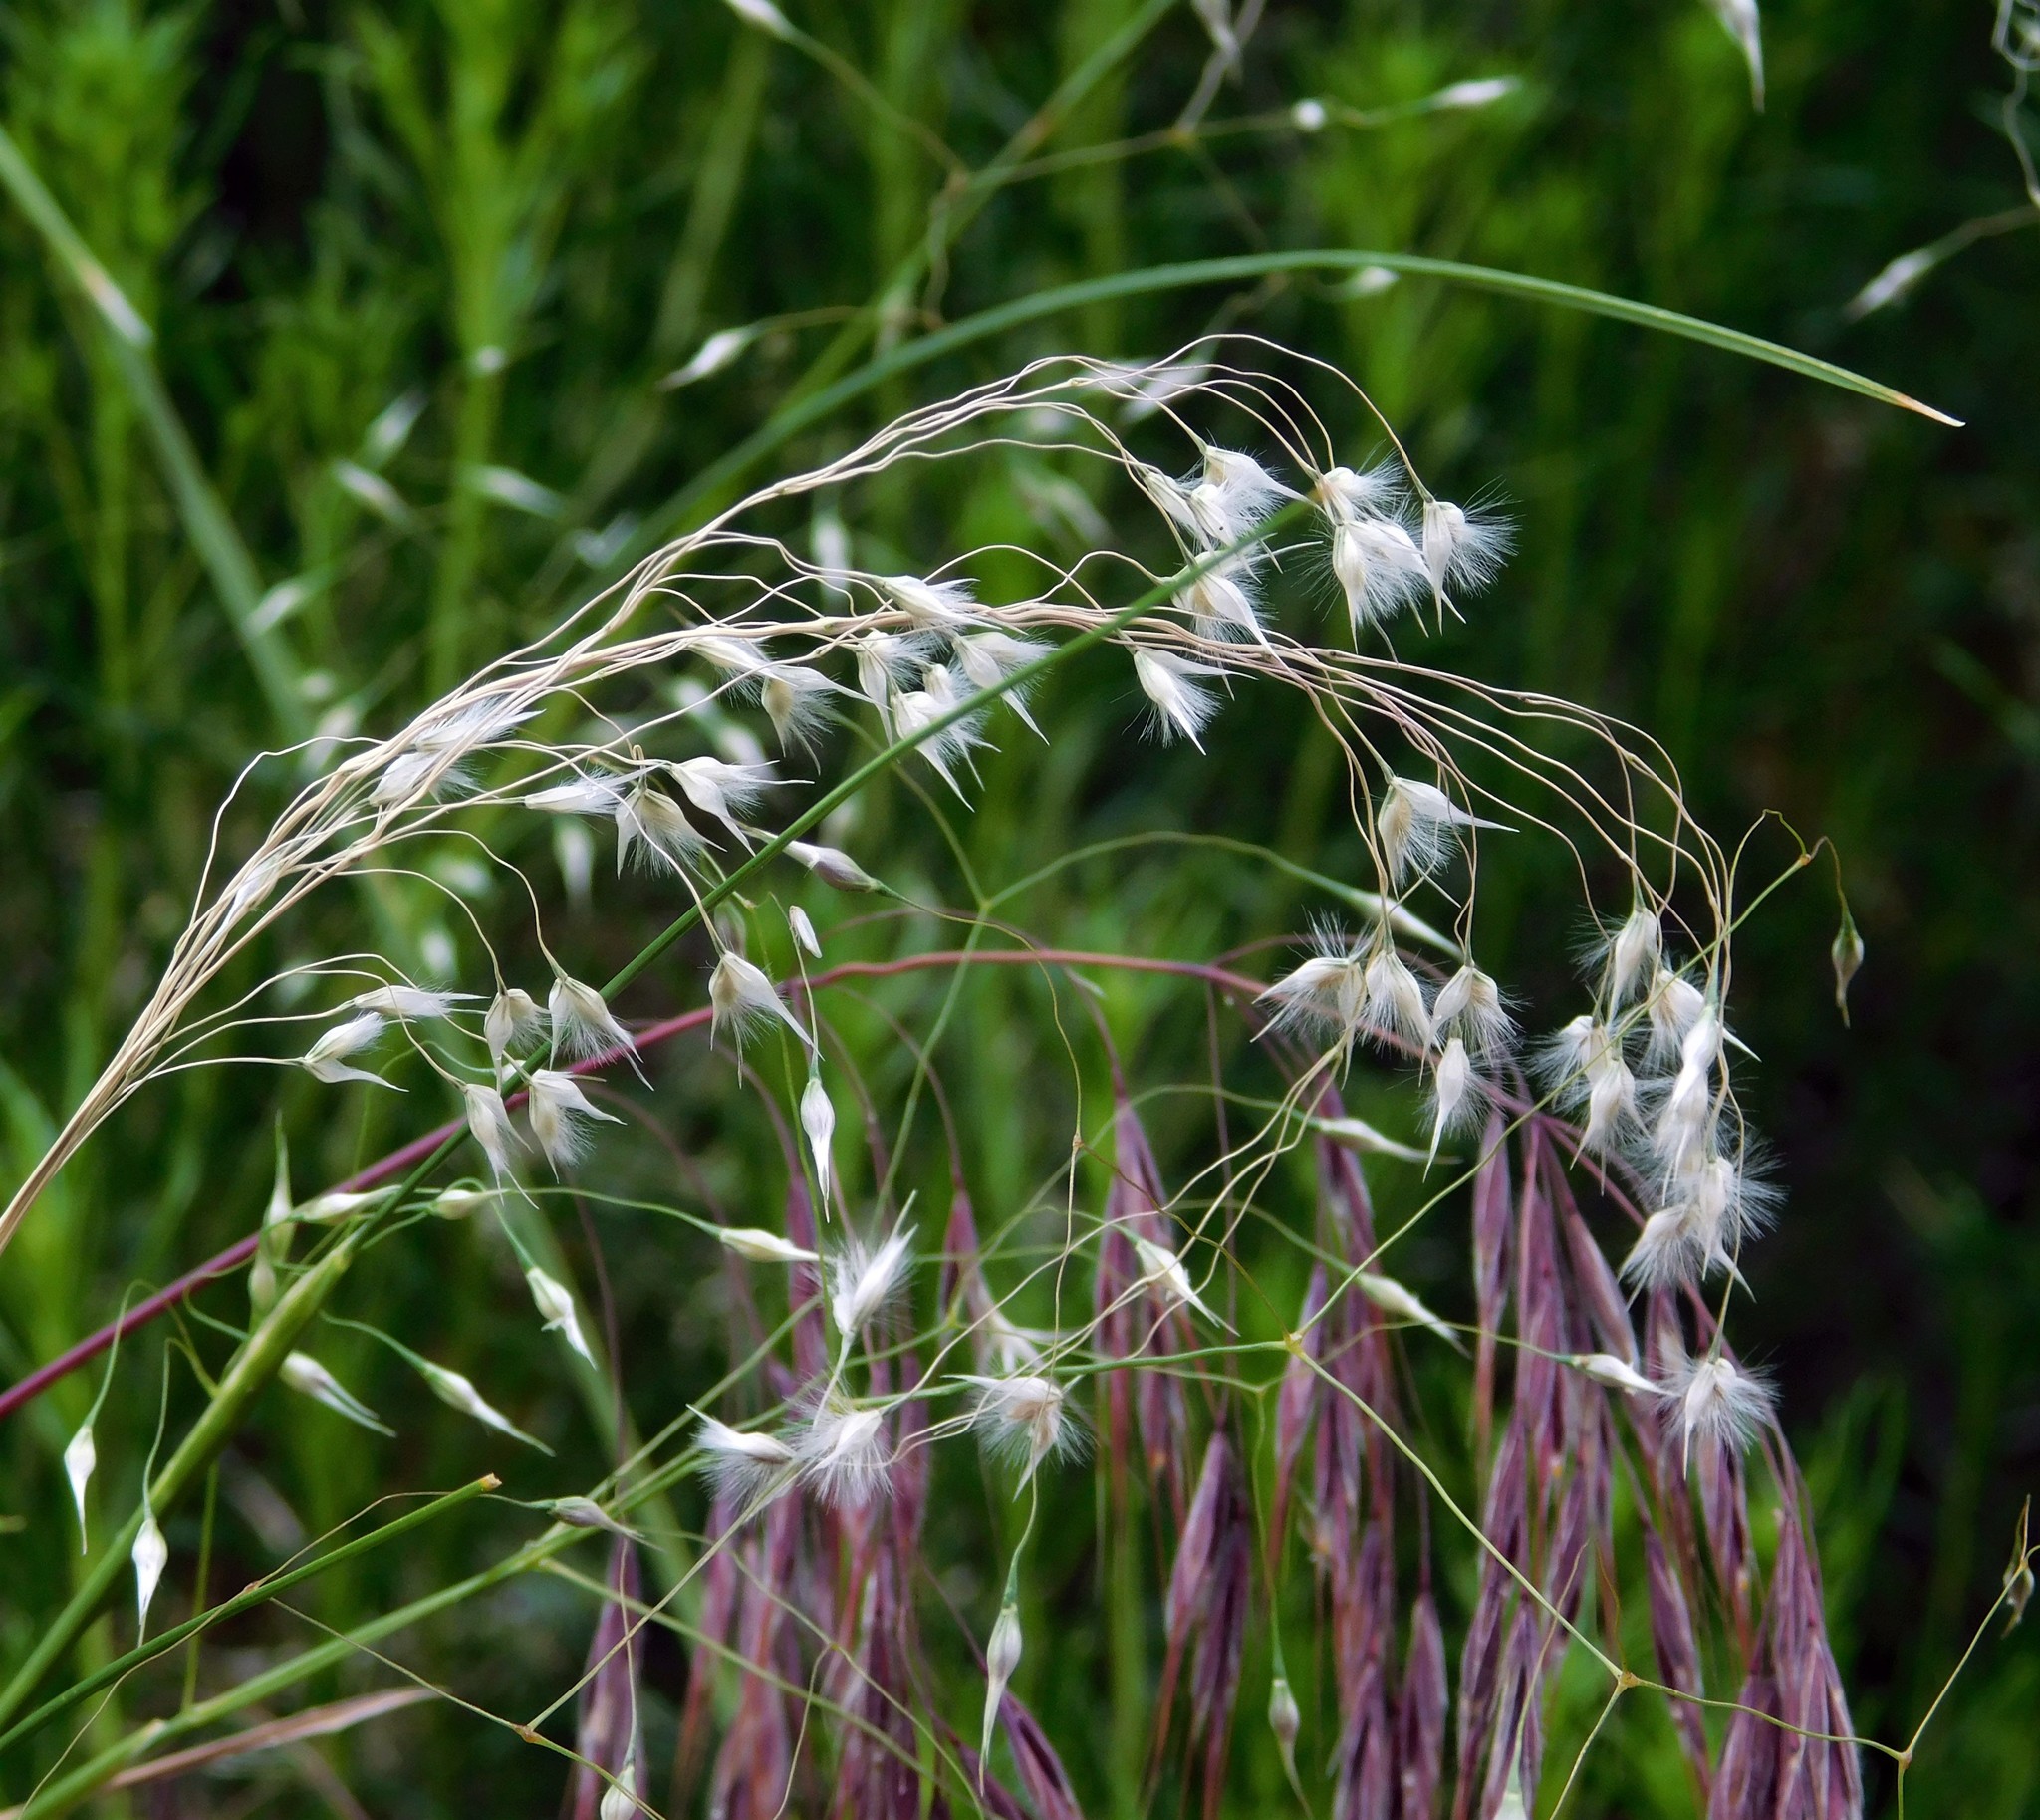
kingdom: Plantae
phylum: Tracheophyta
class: Liliopsida
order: Poales
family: Poaceae
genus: Eriocoma
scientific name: Eriocoma hymenoides
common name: Indian mountain ricegrass
